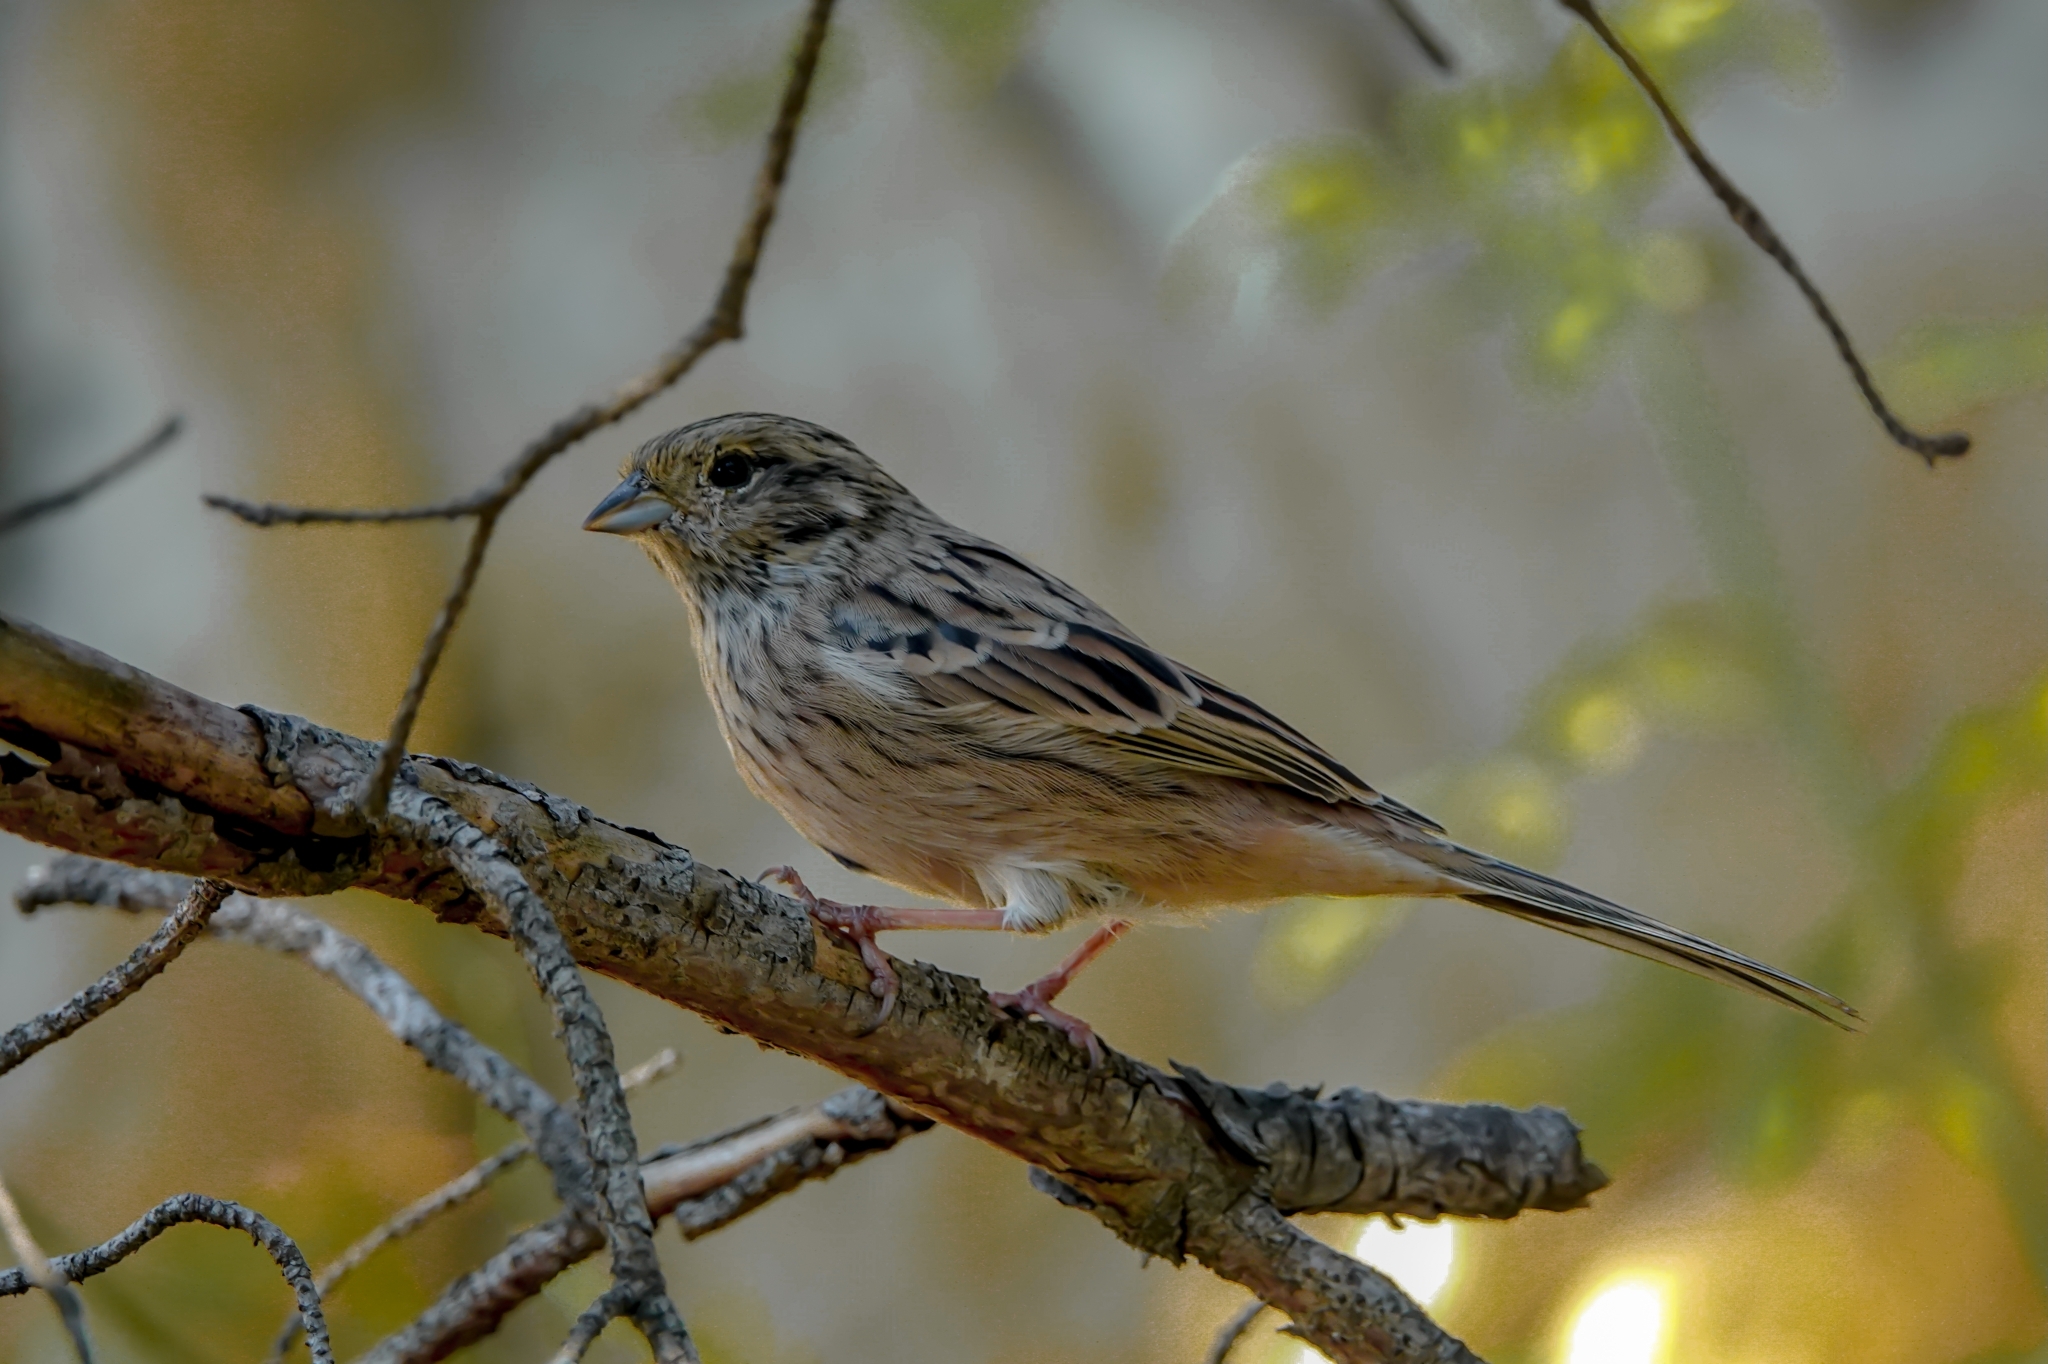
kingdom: Animalia
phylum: Chordata
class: Aves
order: Passeriformes
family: Emberizidae
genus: Emberiza
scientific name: Emberiza cia
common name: Rock bunting
